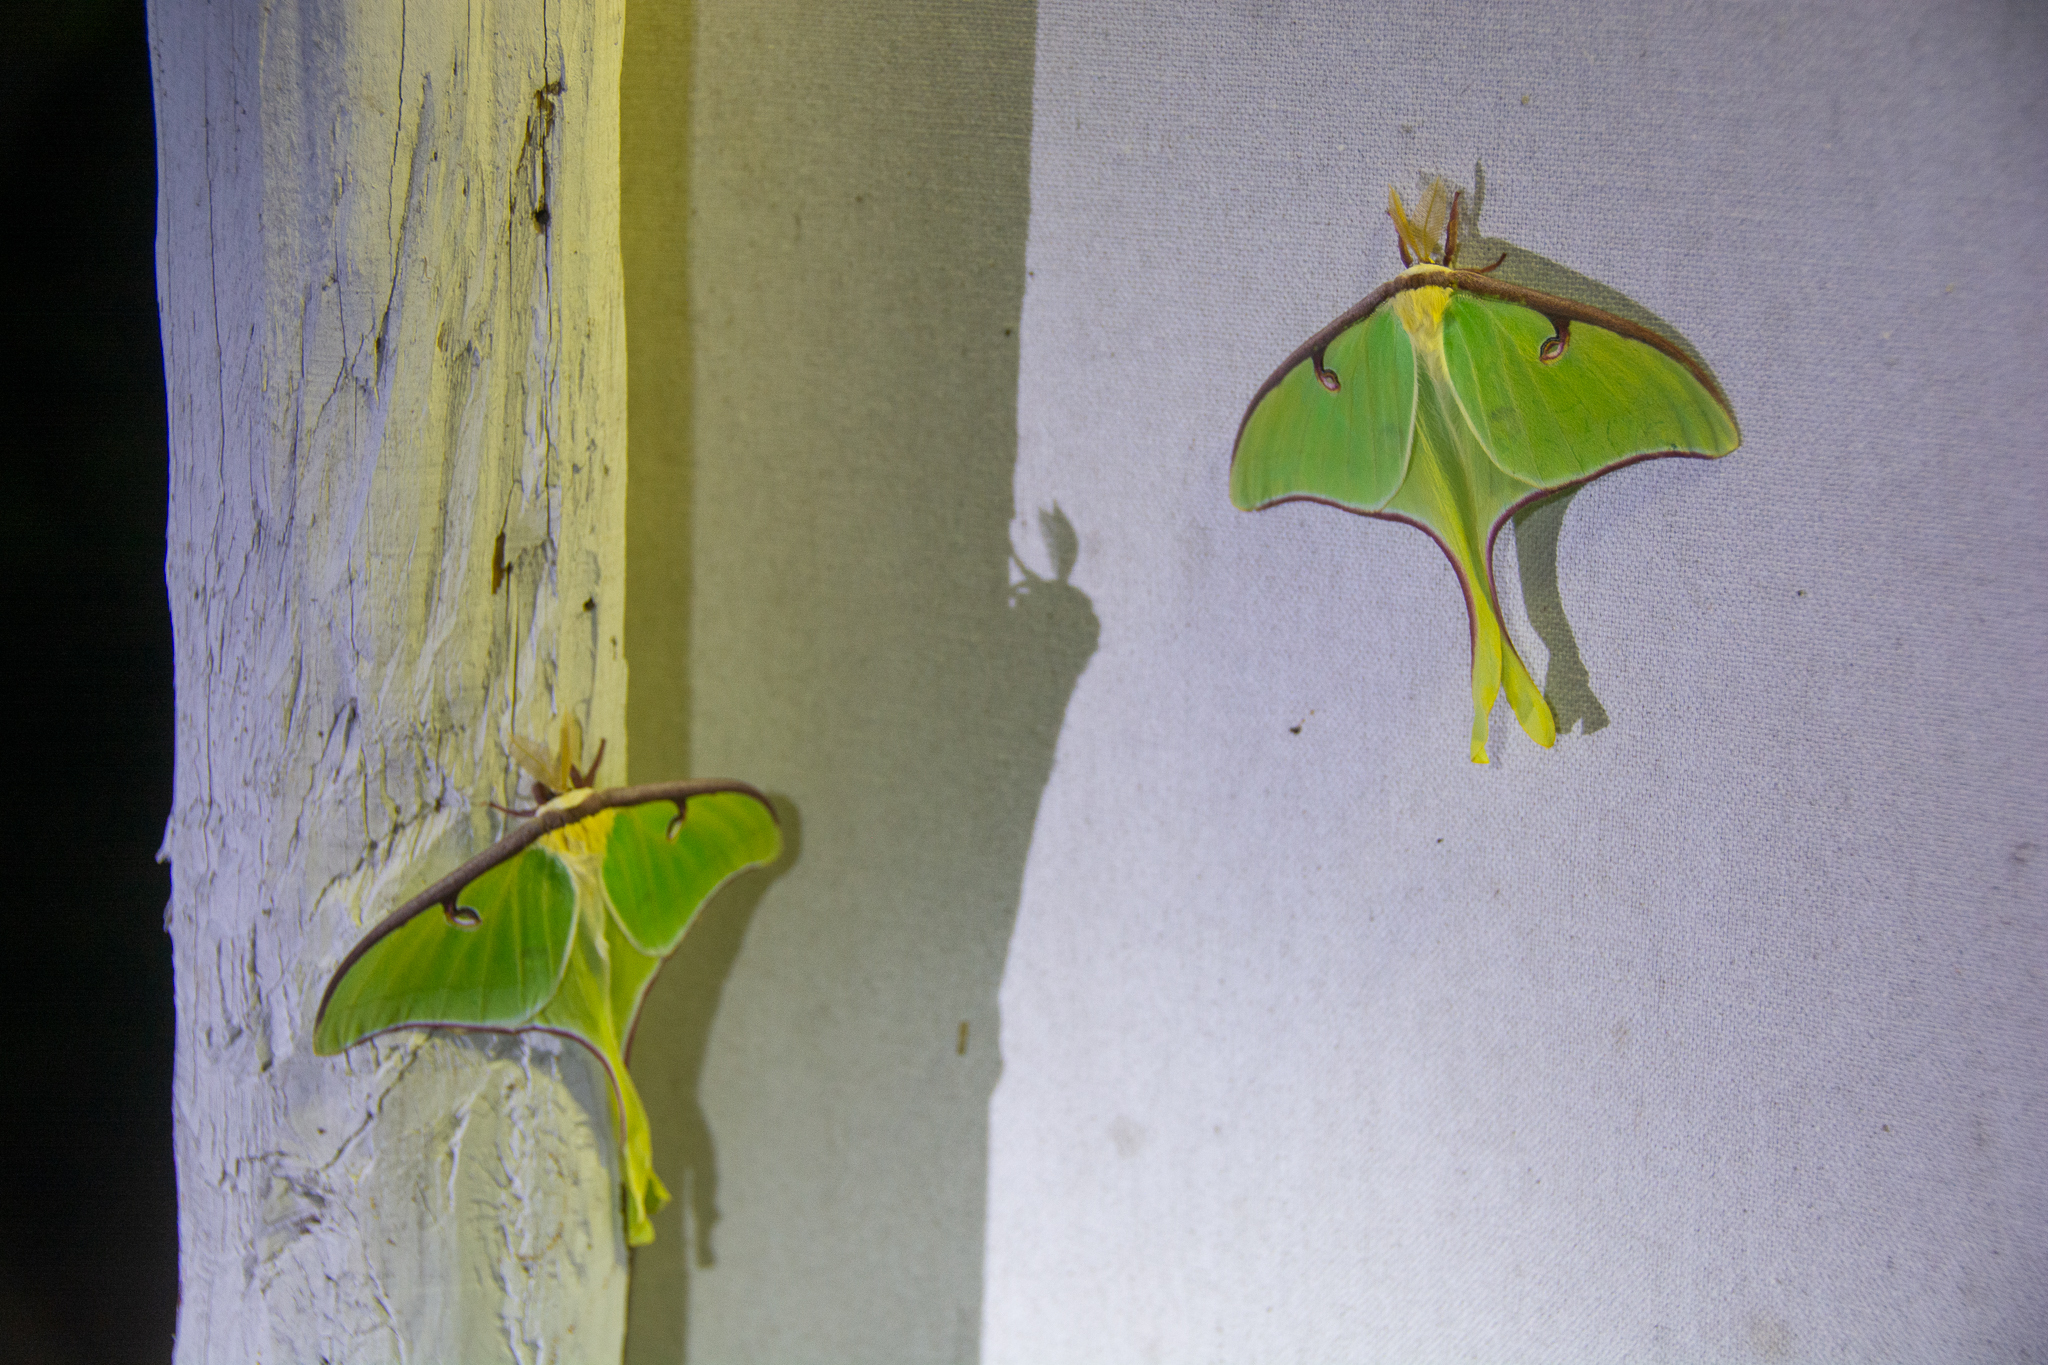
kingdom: Animalia
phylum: Arthropoda
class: Insecta
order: Lepidoptera
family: Saturniidae
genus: Actias
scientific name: Actias luna
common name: Luna moth
